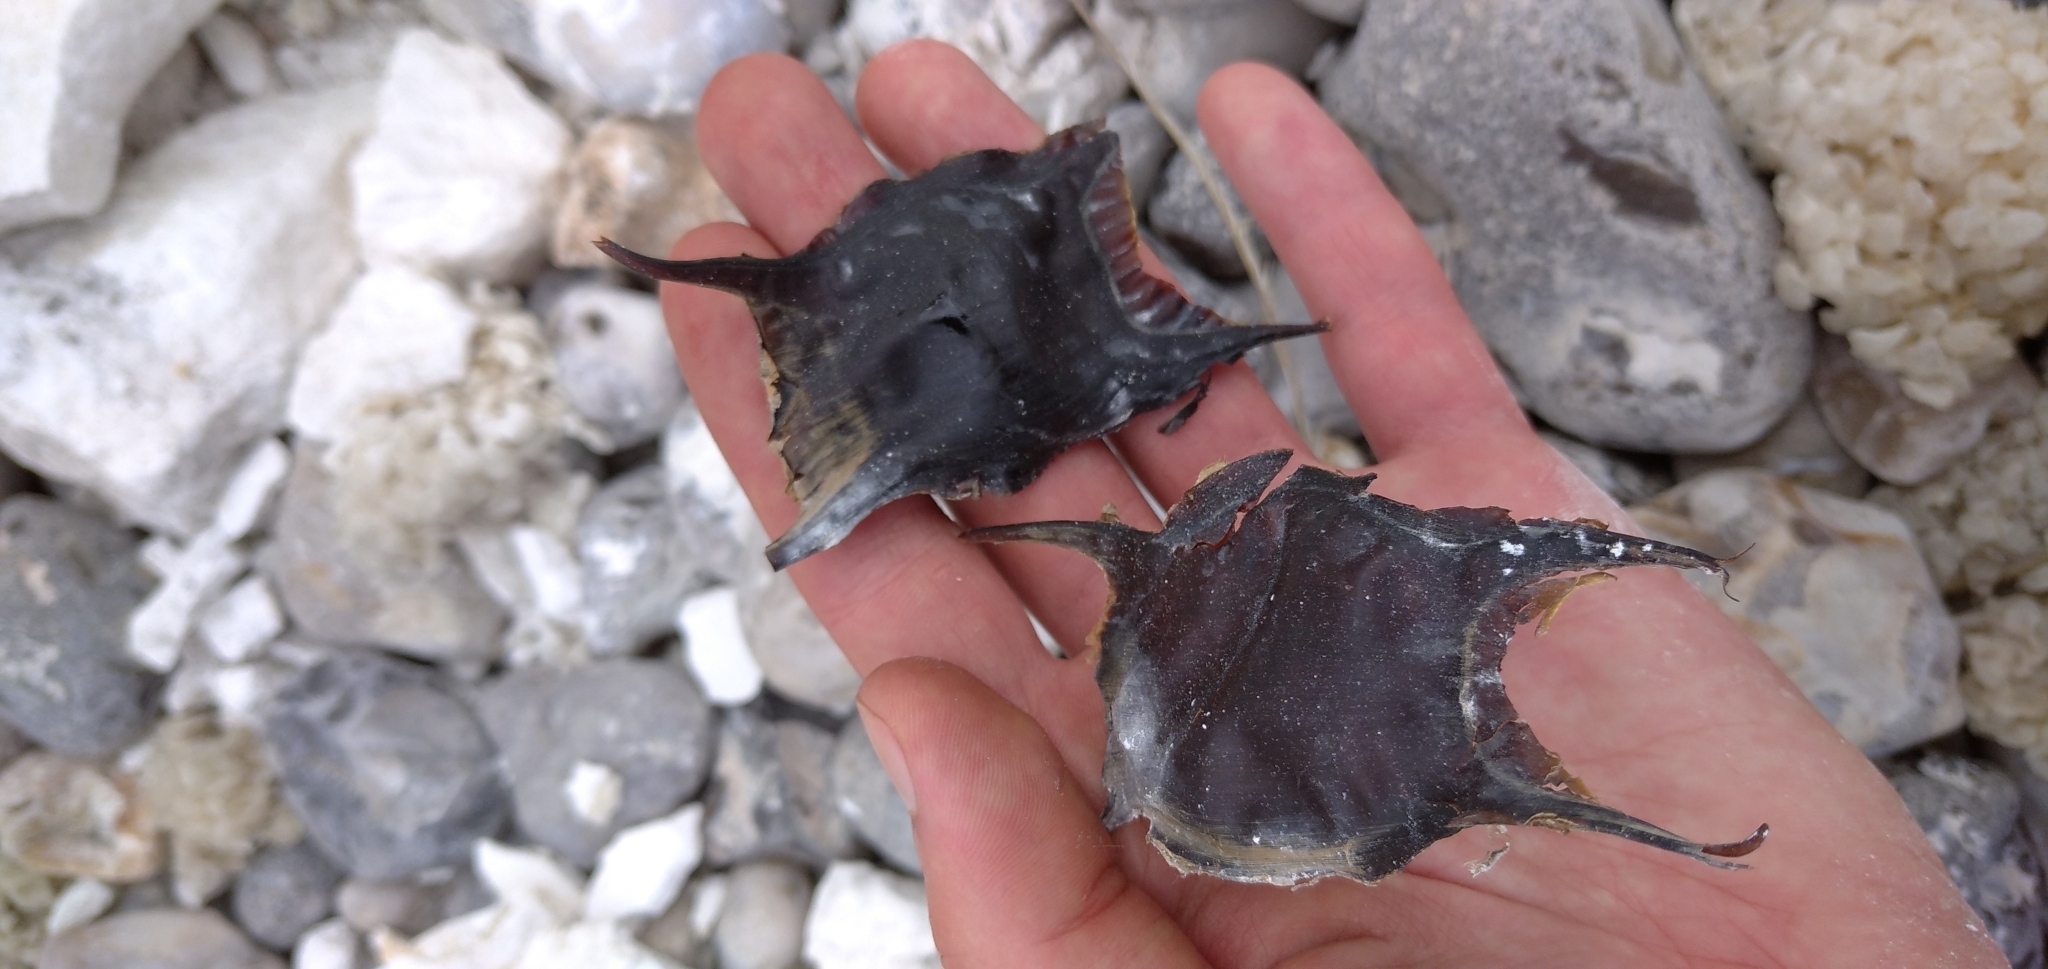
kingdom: Animalia
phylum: Chordata
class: Elasmobranchii
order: Rajiformes
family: Rajidae
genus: Raja
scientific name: Raja clavata
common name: Thornback ray
